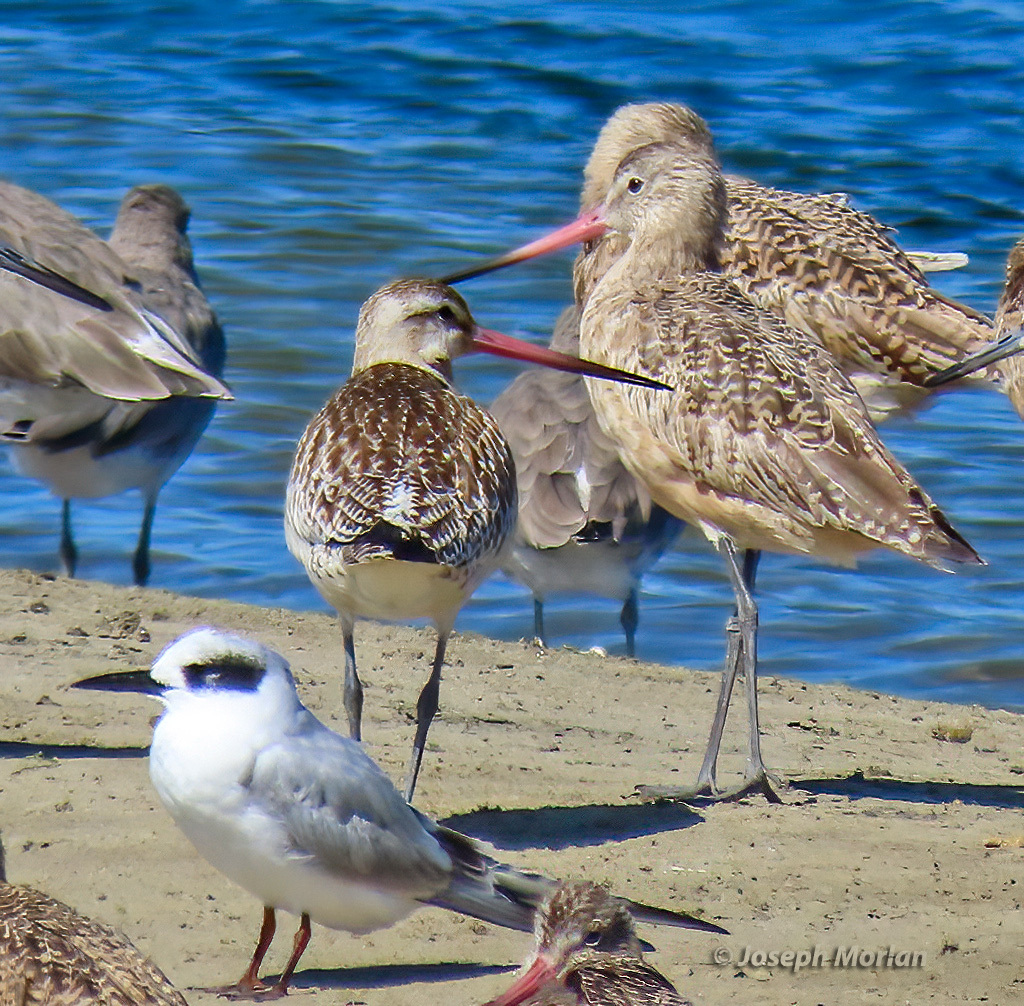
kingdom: Animalia
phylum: Chordata
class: Aves
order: Charadriiformes
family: Scolopacidae
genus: Limosa
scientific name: Limosa lapponica
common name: Bar-tailed godwit
